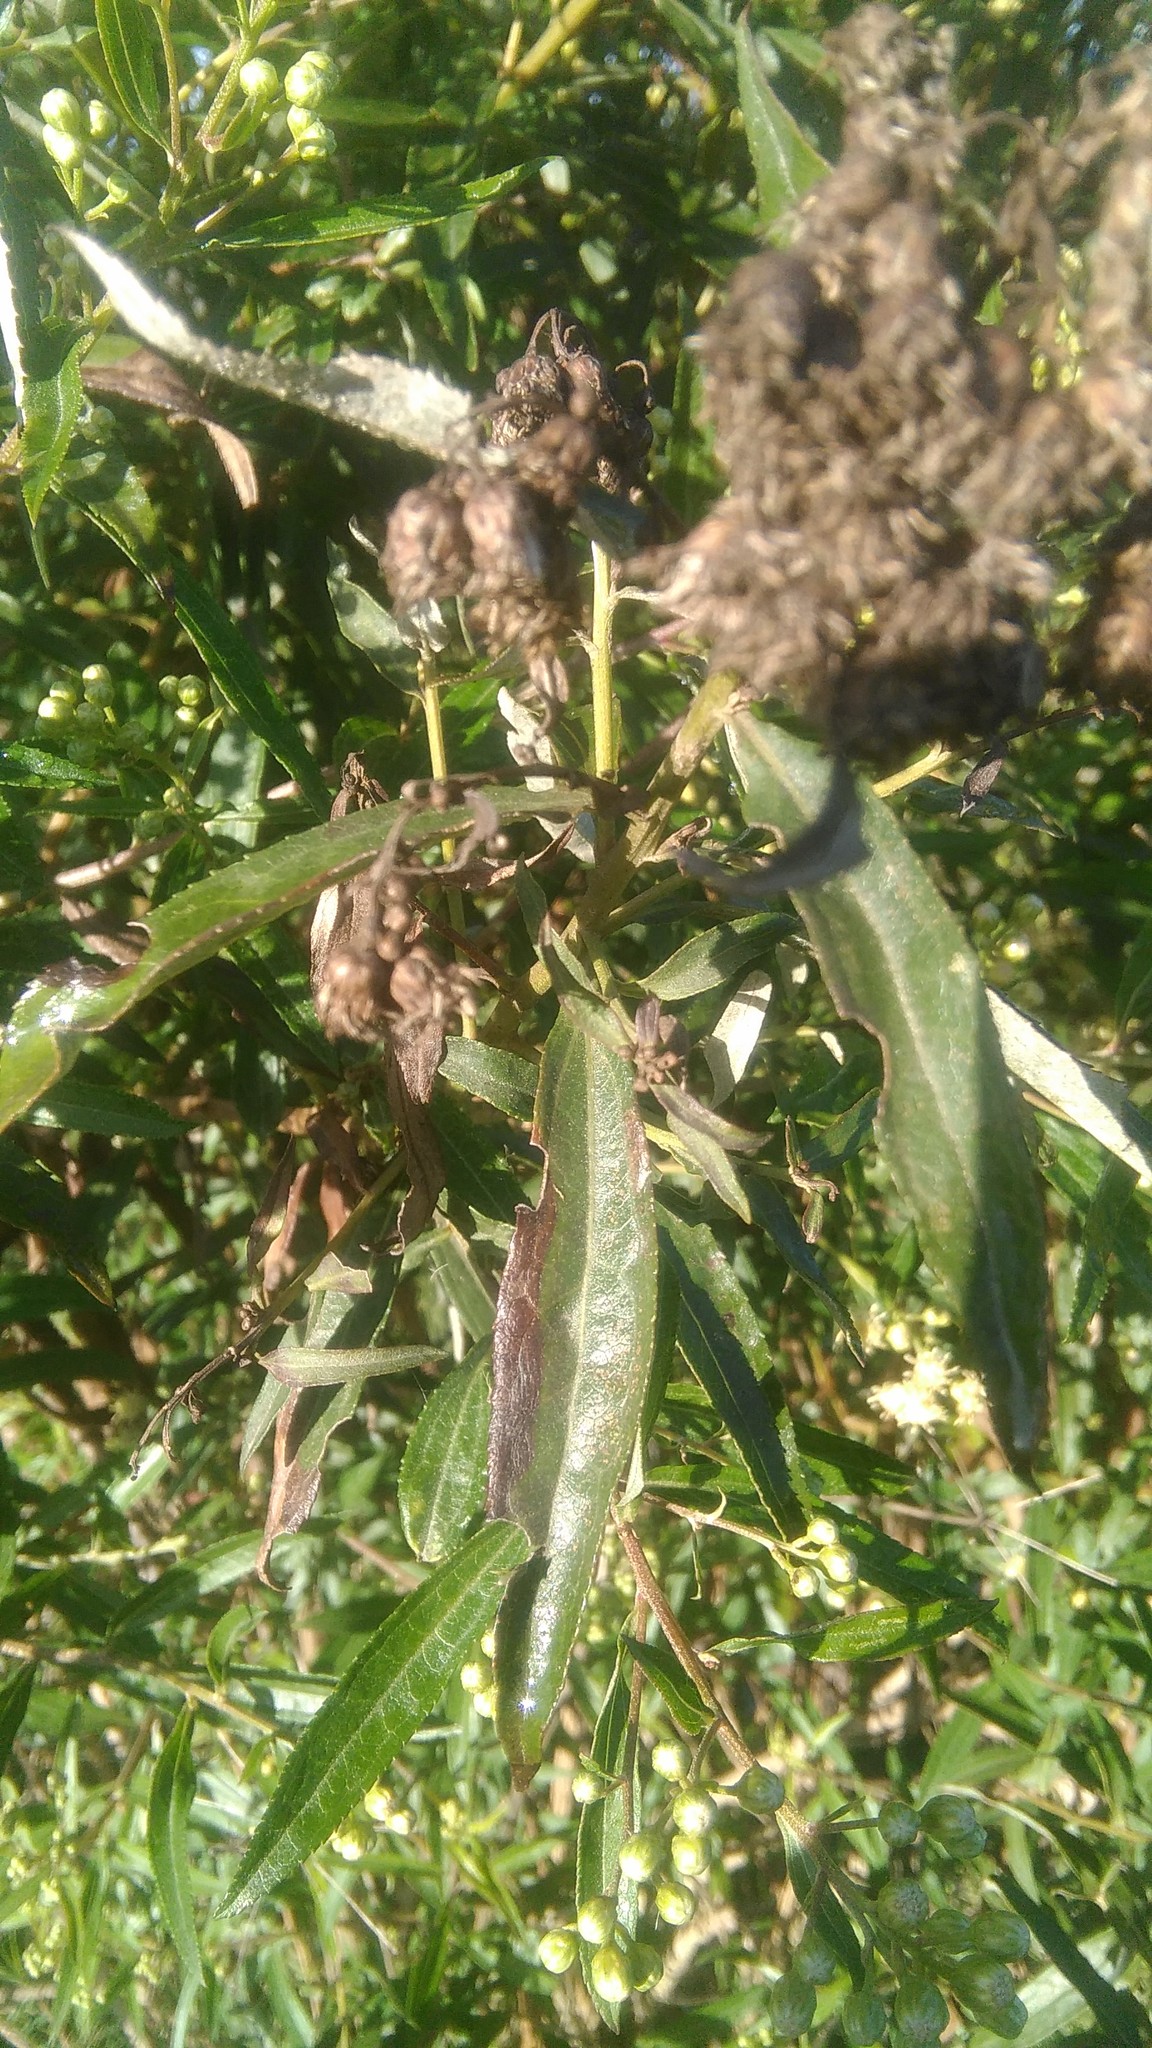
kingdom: Plantae
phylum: Tracheophyta
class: Magnoliopsida
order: Asterales
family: Asteraceae
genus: Baccharis
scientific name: Baccharis punctulata
